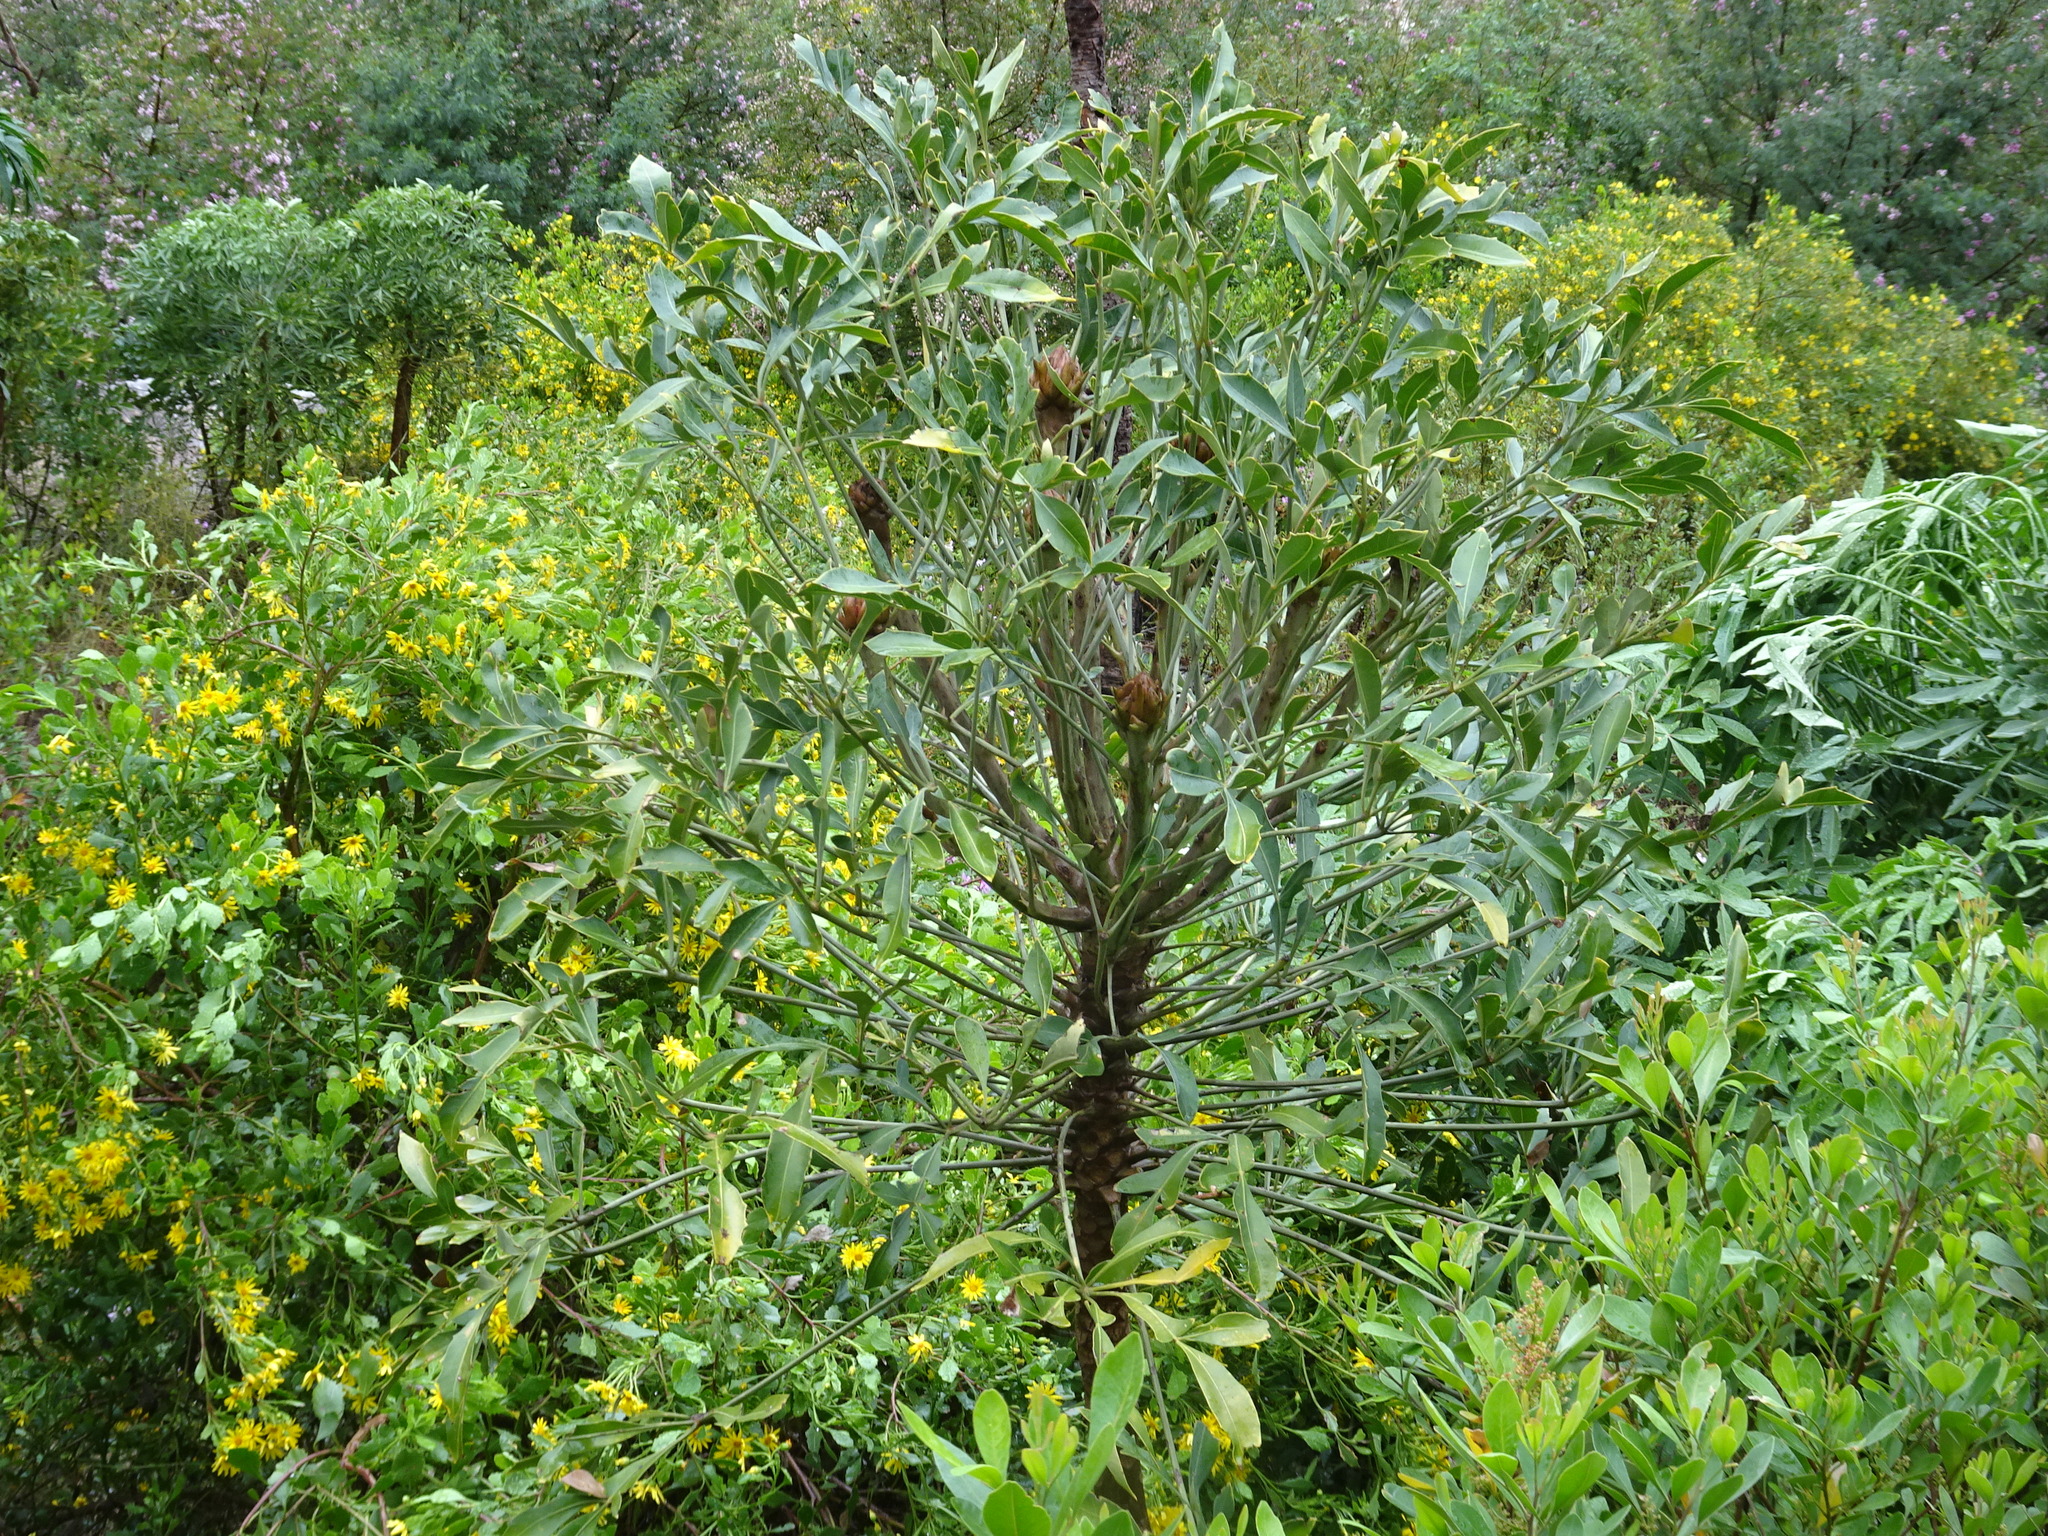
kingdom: Plantae
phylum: Tracheophyta
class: Magnoliopsida
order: Apiales
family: Araliaceae
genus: Cussonia
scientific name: Cussonia spicata
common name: Common cabbagetree
